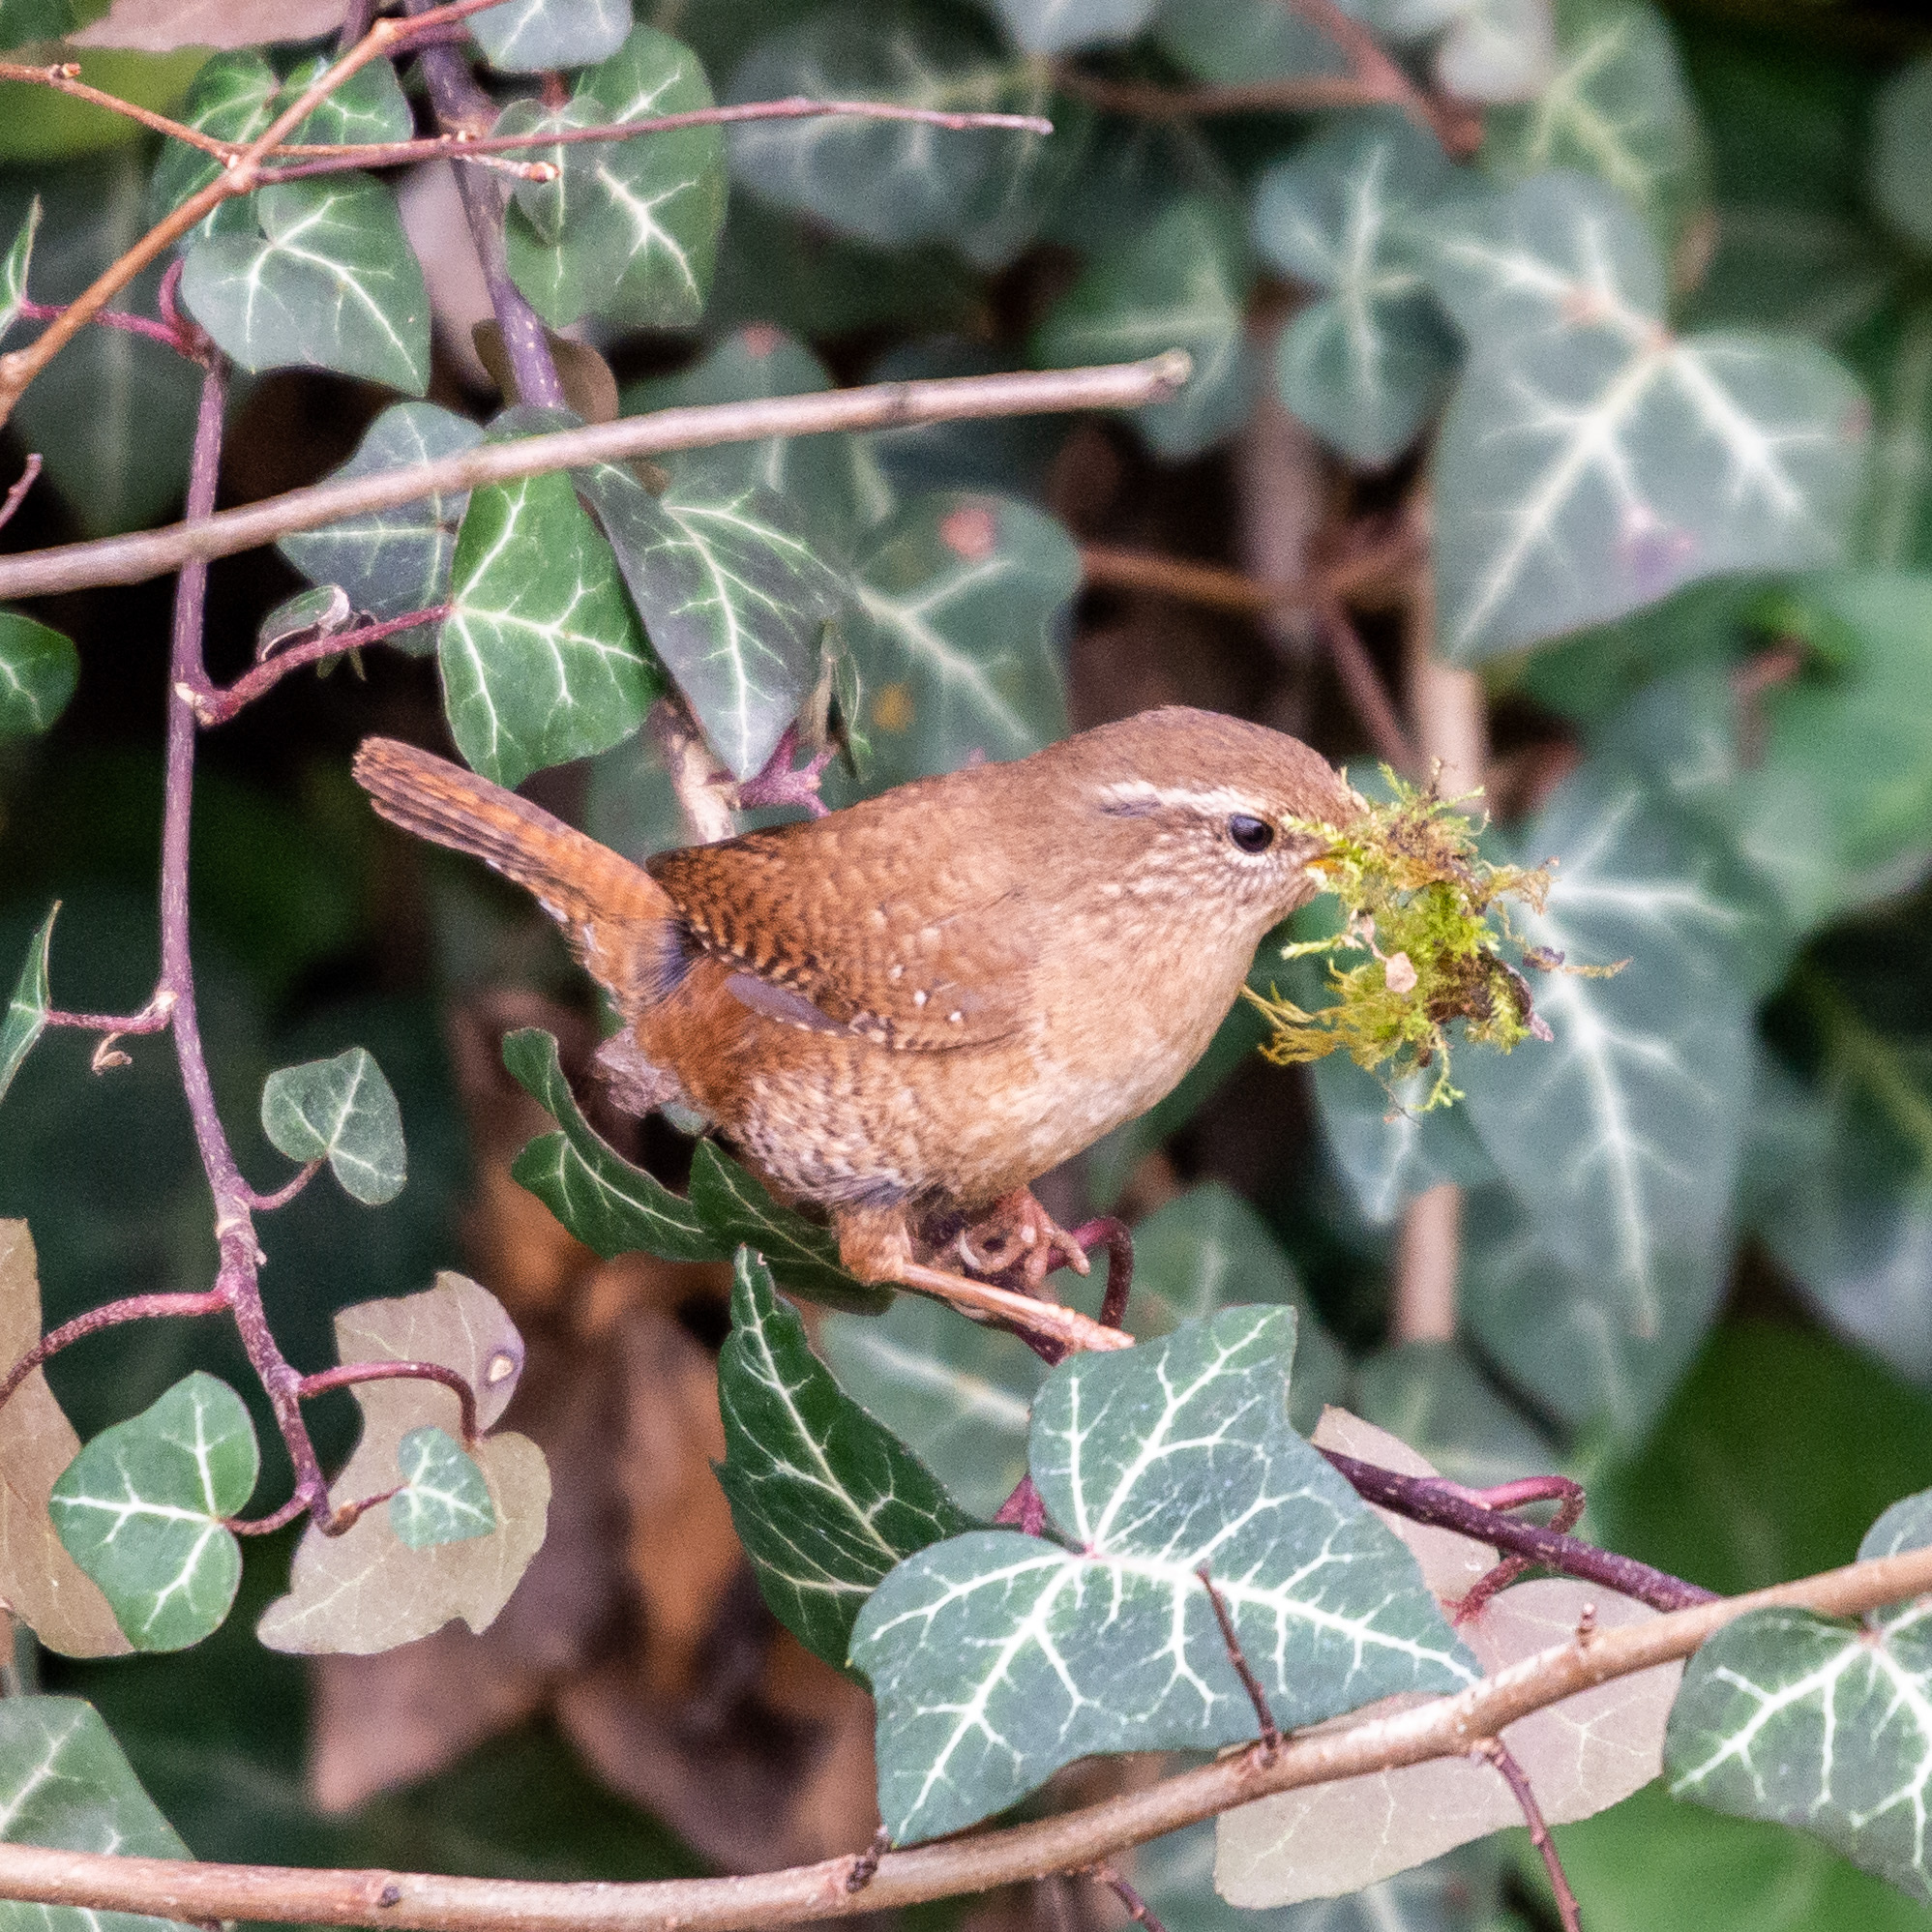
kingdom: Animalia
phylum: Chordata
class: Aves
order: Passeriformes
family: Troglodytidae
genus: Troglodytes
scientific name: Troglodytes troglodytes
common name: Eurasian wren
